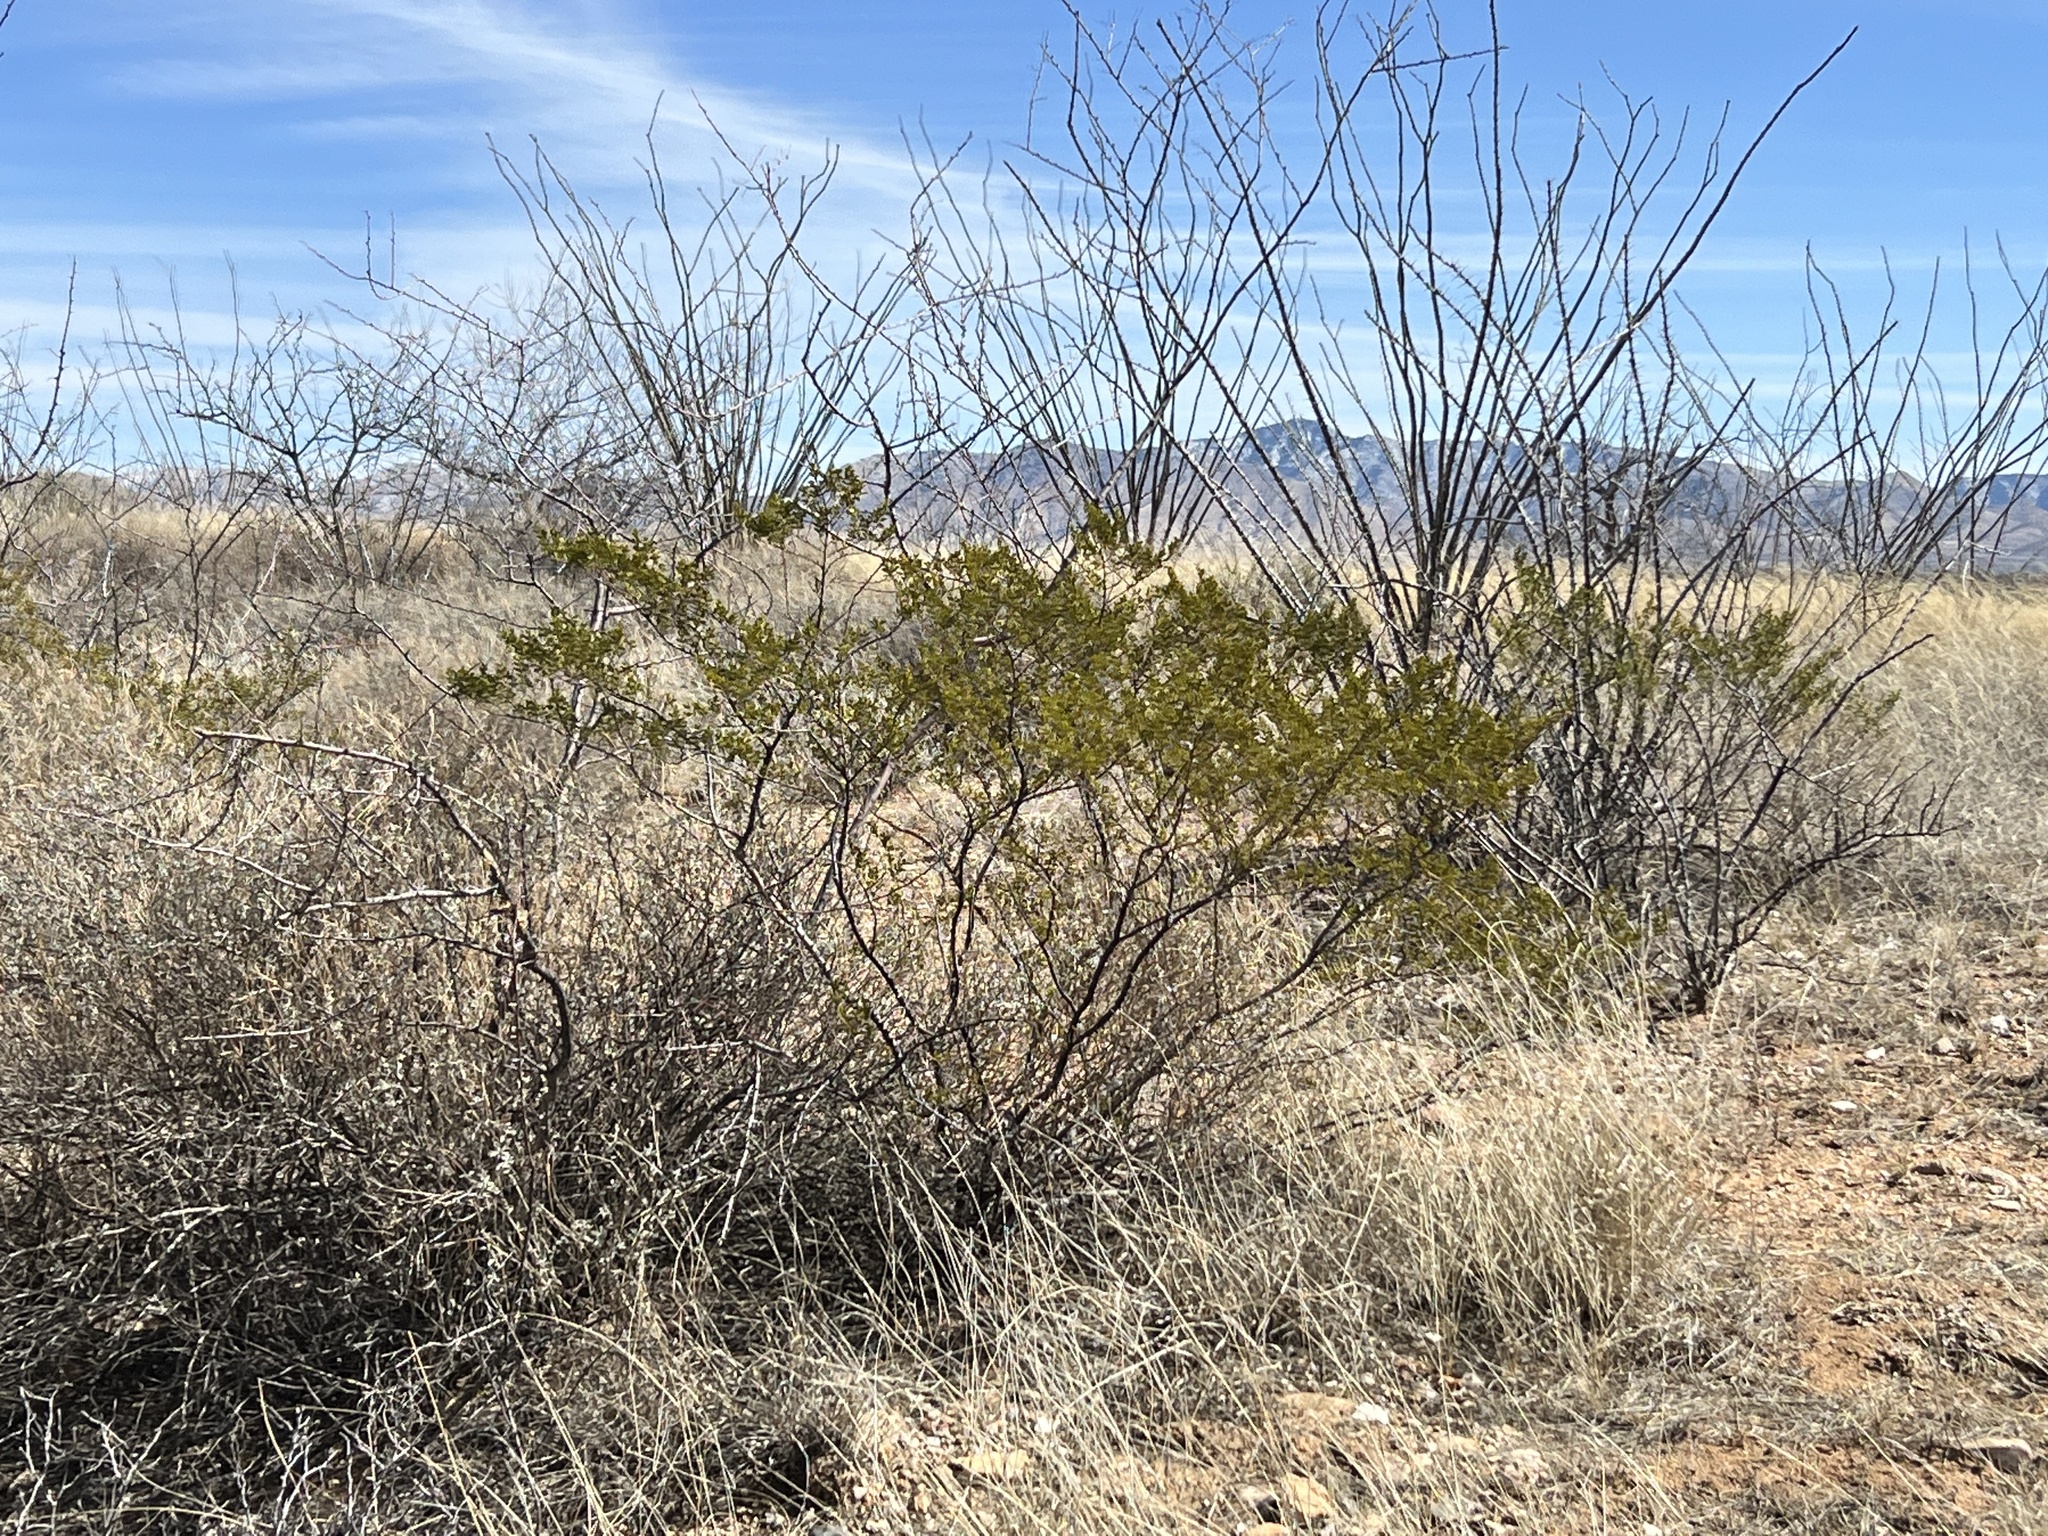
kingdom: Plantae
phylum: Tracheophyta
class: Magnoliopsida
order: Zygophyllales
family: Zygophyllaceae
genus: Larrea
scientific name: Larrea tridentata
